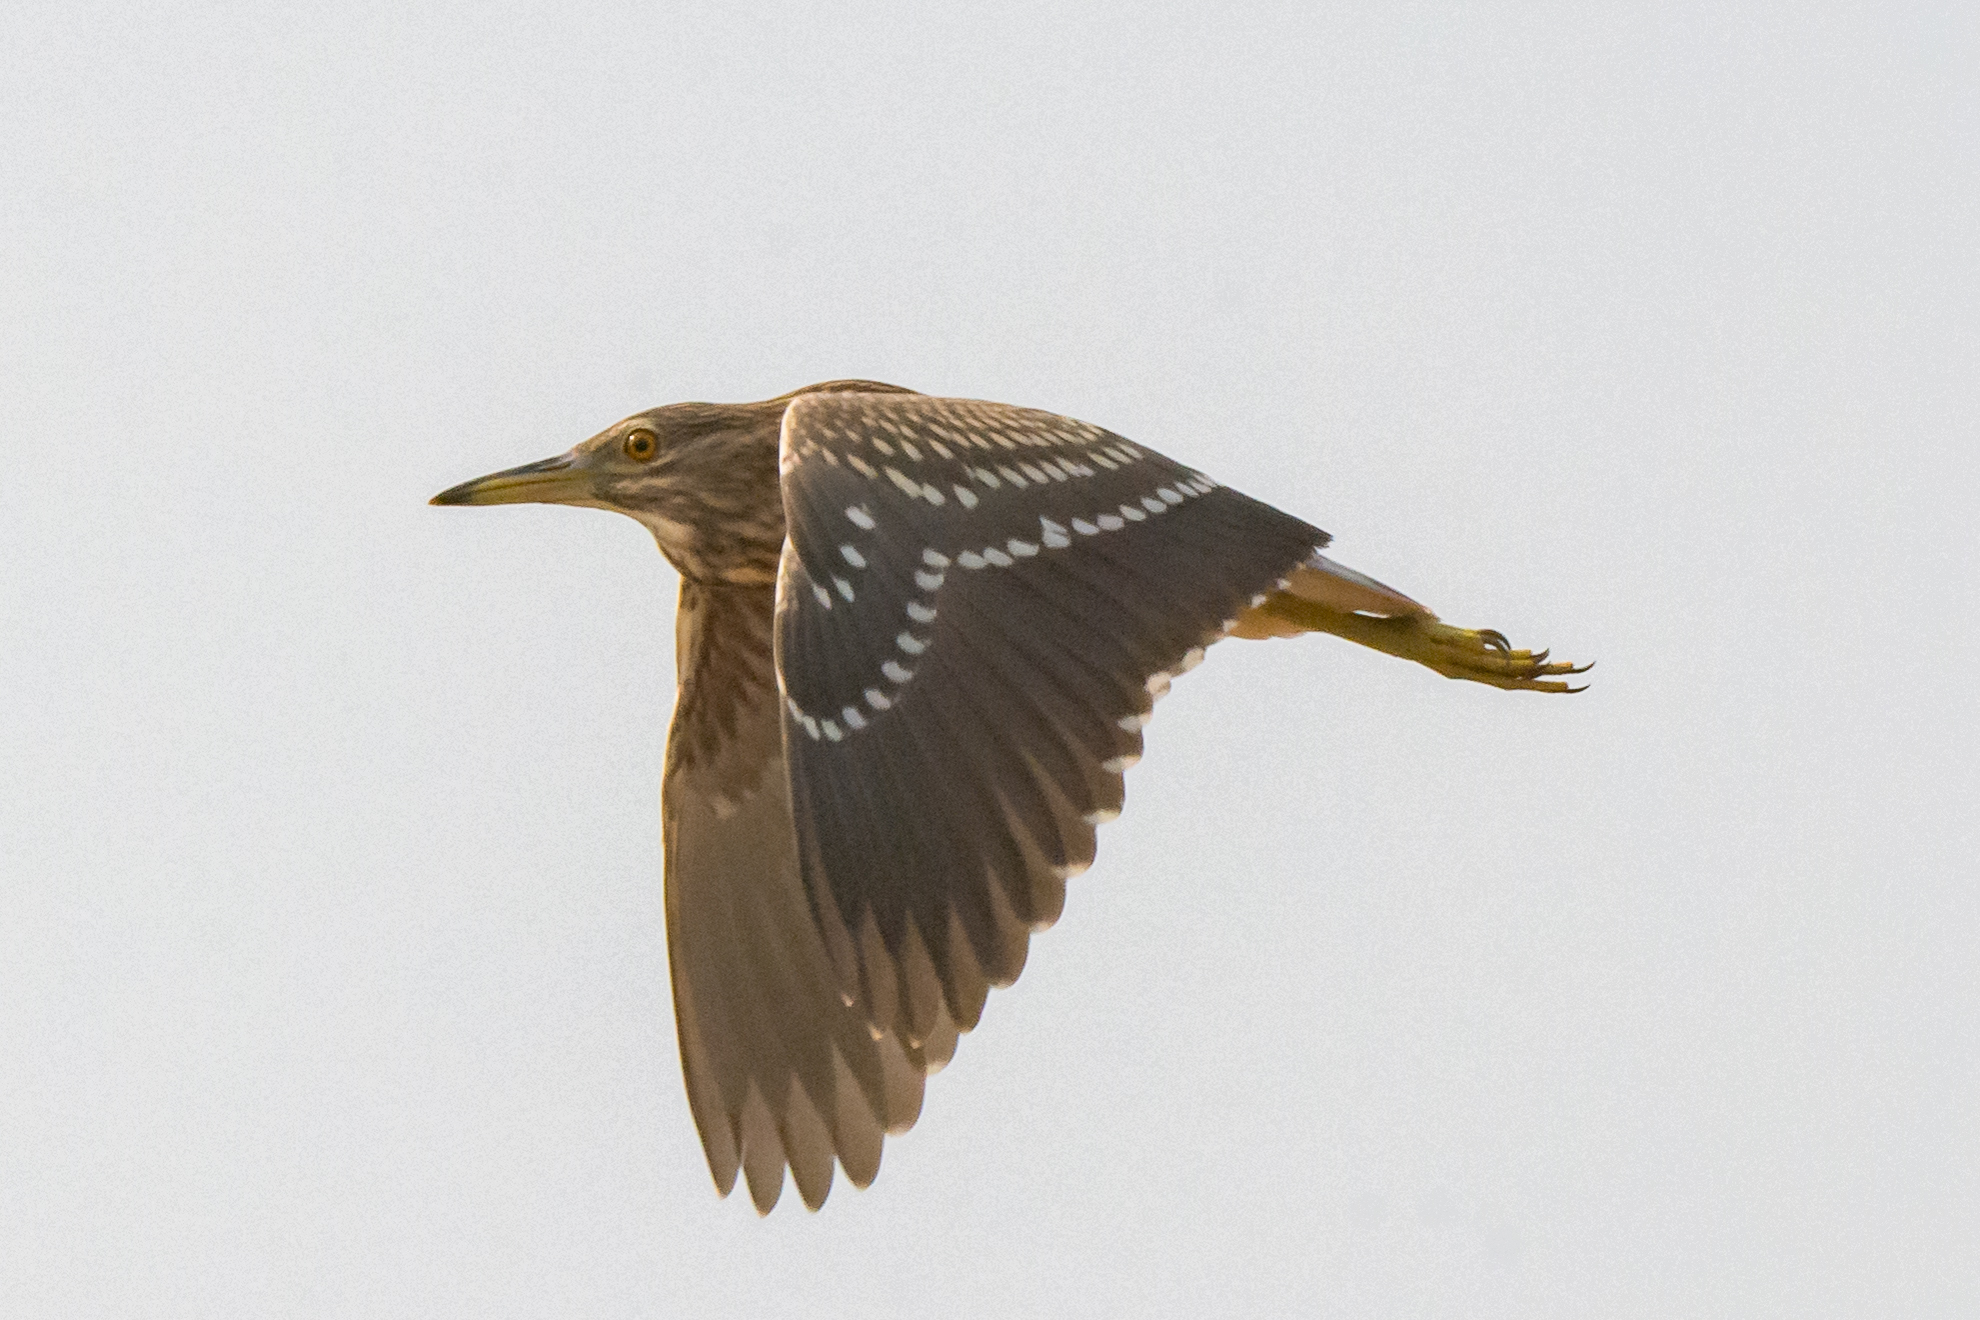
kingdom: Animalia
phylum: Chordata
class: Aves
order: Pelecaniformes
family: Ardeidae
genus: Nycticorax
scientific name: Nycticorax nycticorax
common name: Black-crowned night heron
